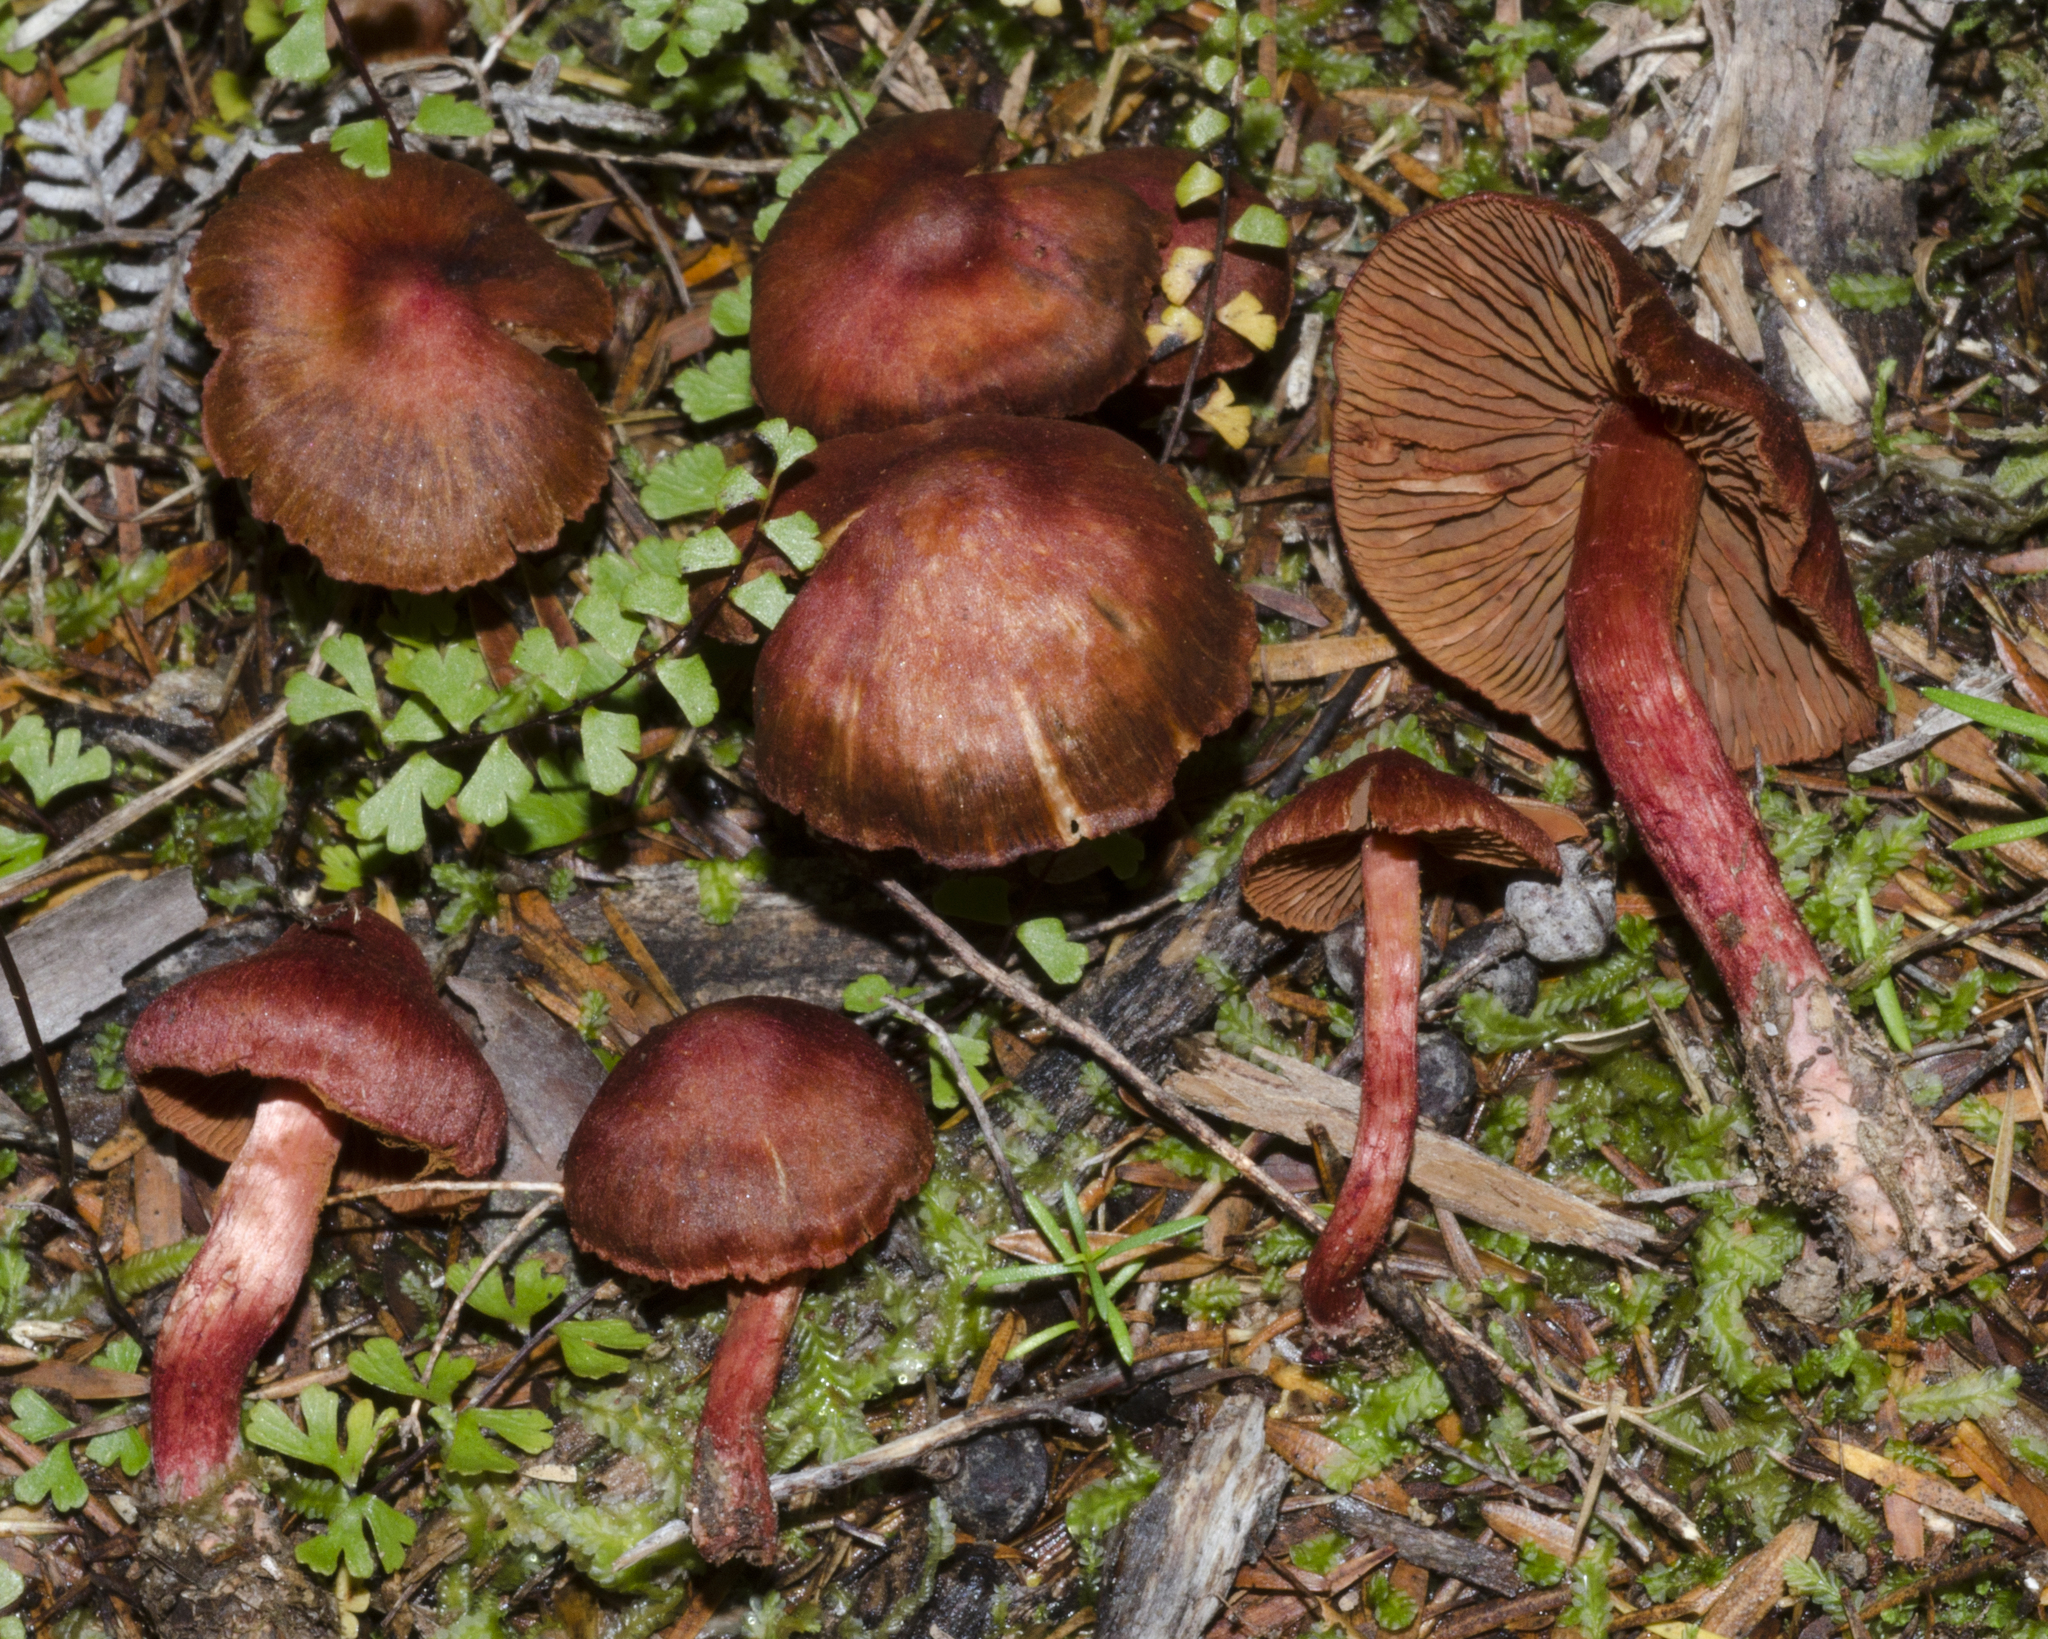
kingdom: Fungi
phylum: Basidiomycota
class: Agaricomycetes
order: Agaricales
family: Cortinariaceae
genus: Cortinarius
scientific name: Cortinarius cruentoides
